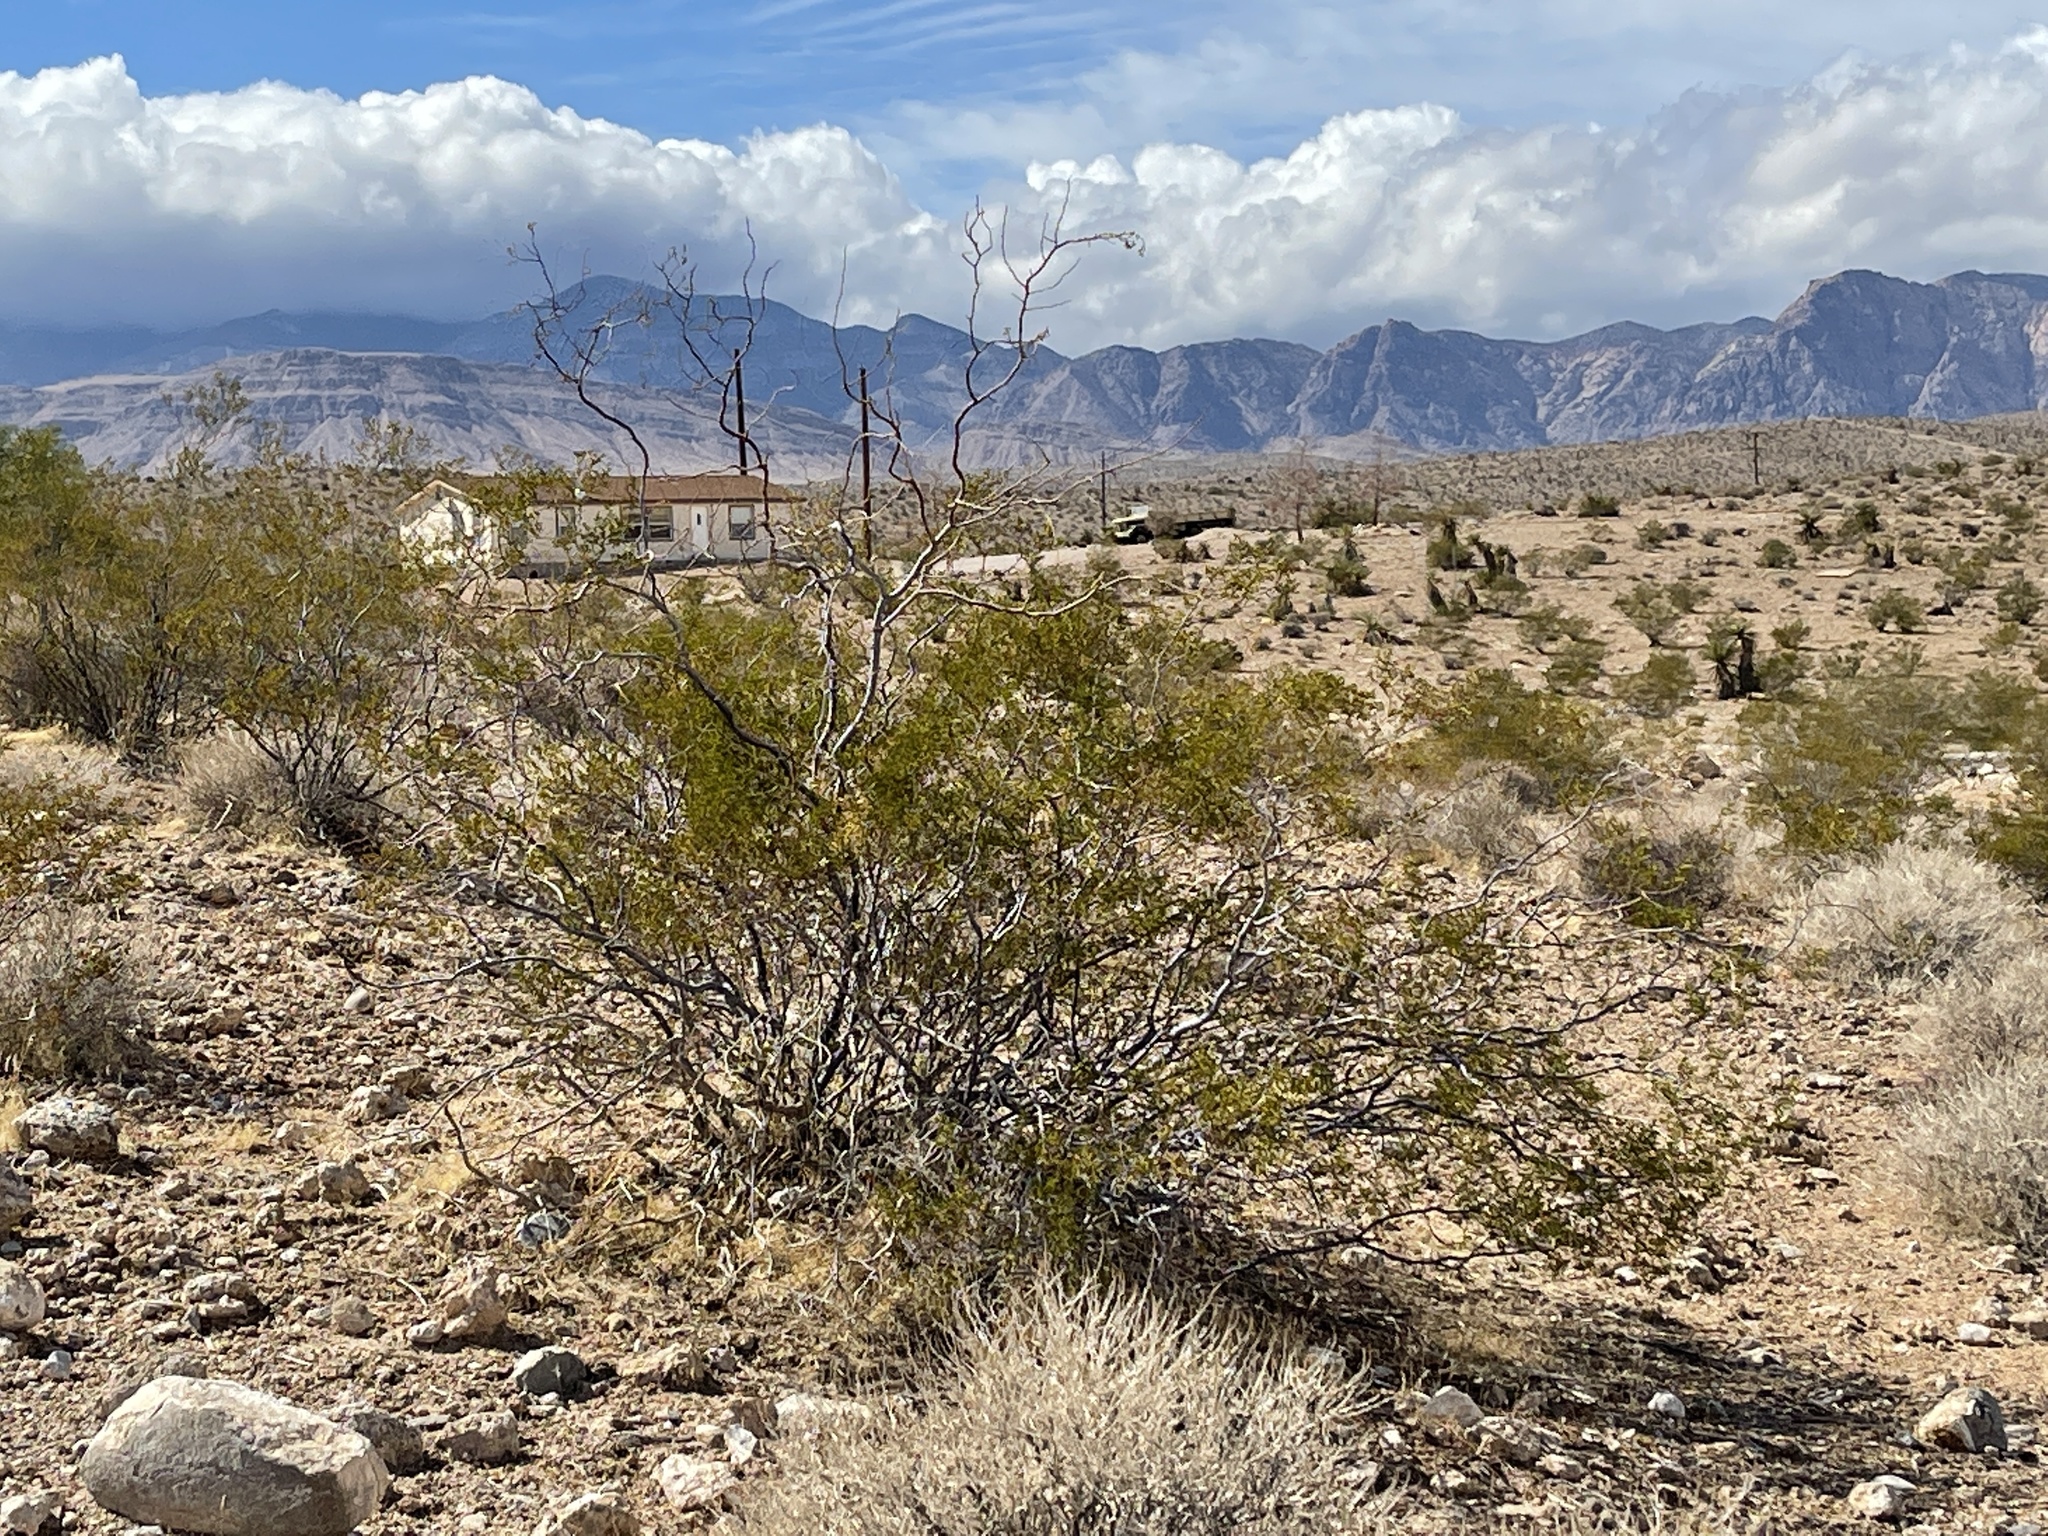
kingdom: Plantae
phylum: Tracheophyta
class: Magnoliopsida
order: Zygophyllales
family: Zygophyllaceae
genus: Larrea
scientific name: Larrea tridentata
